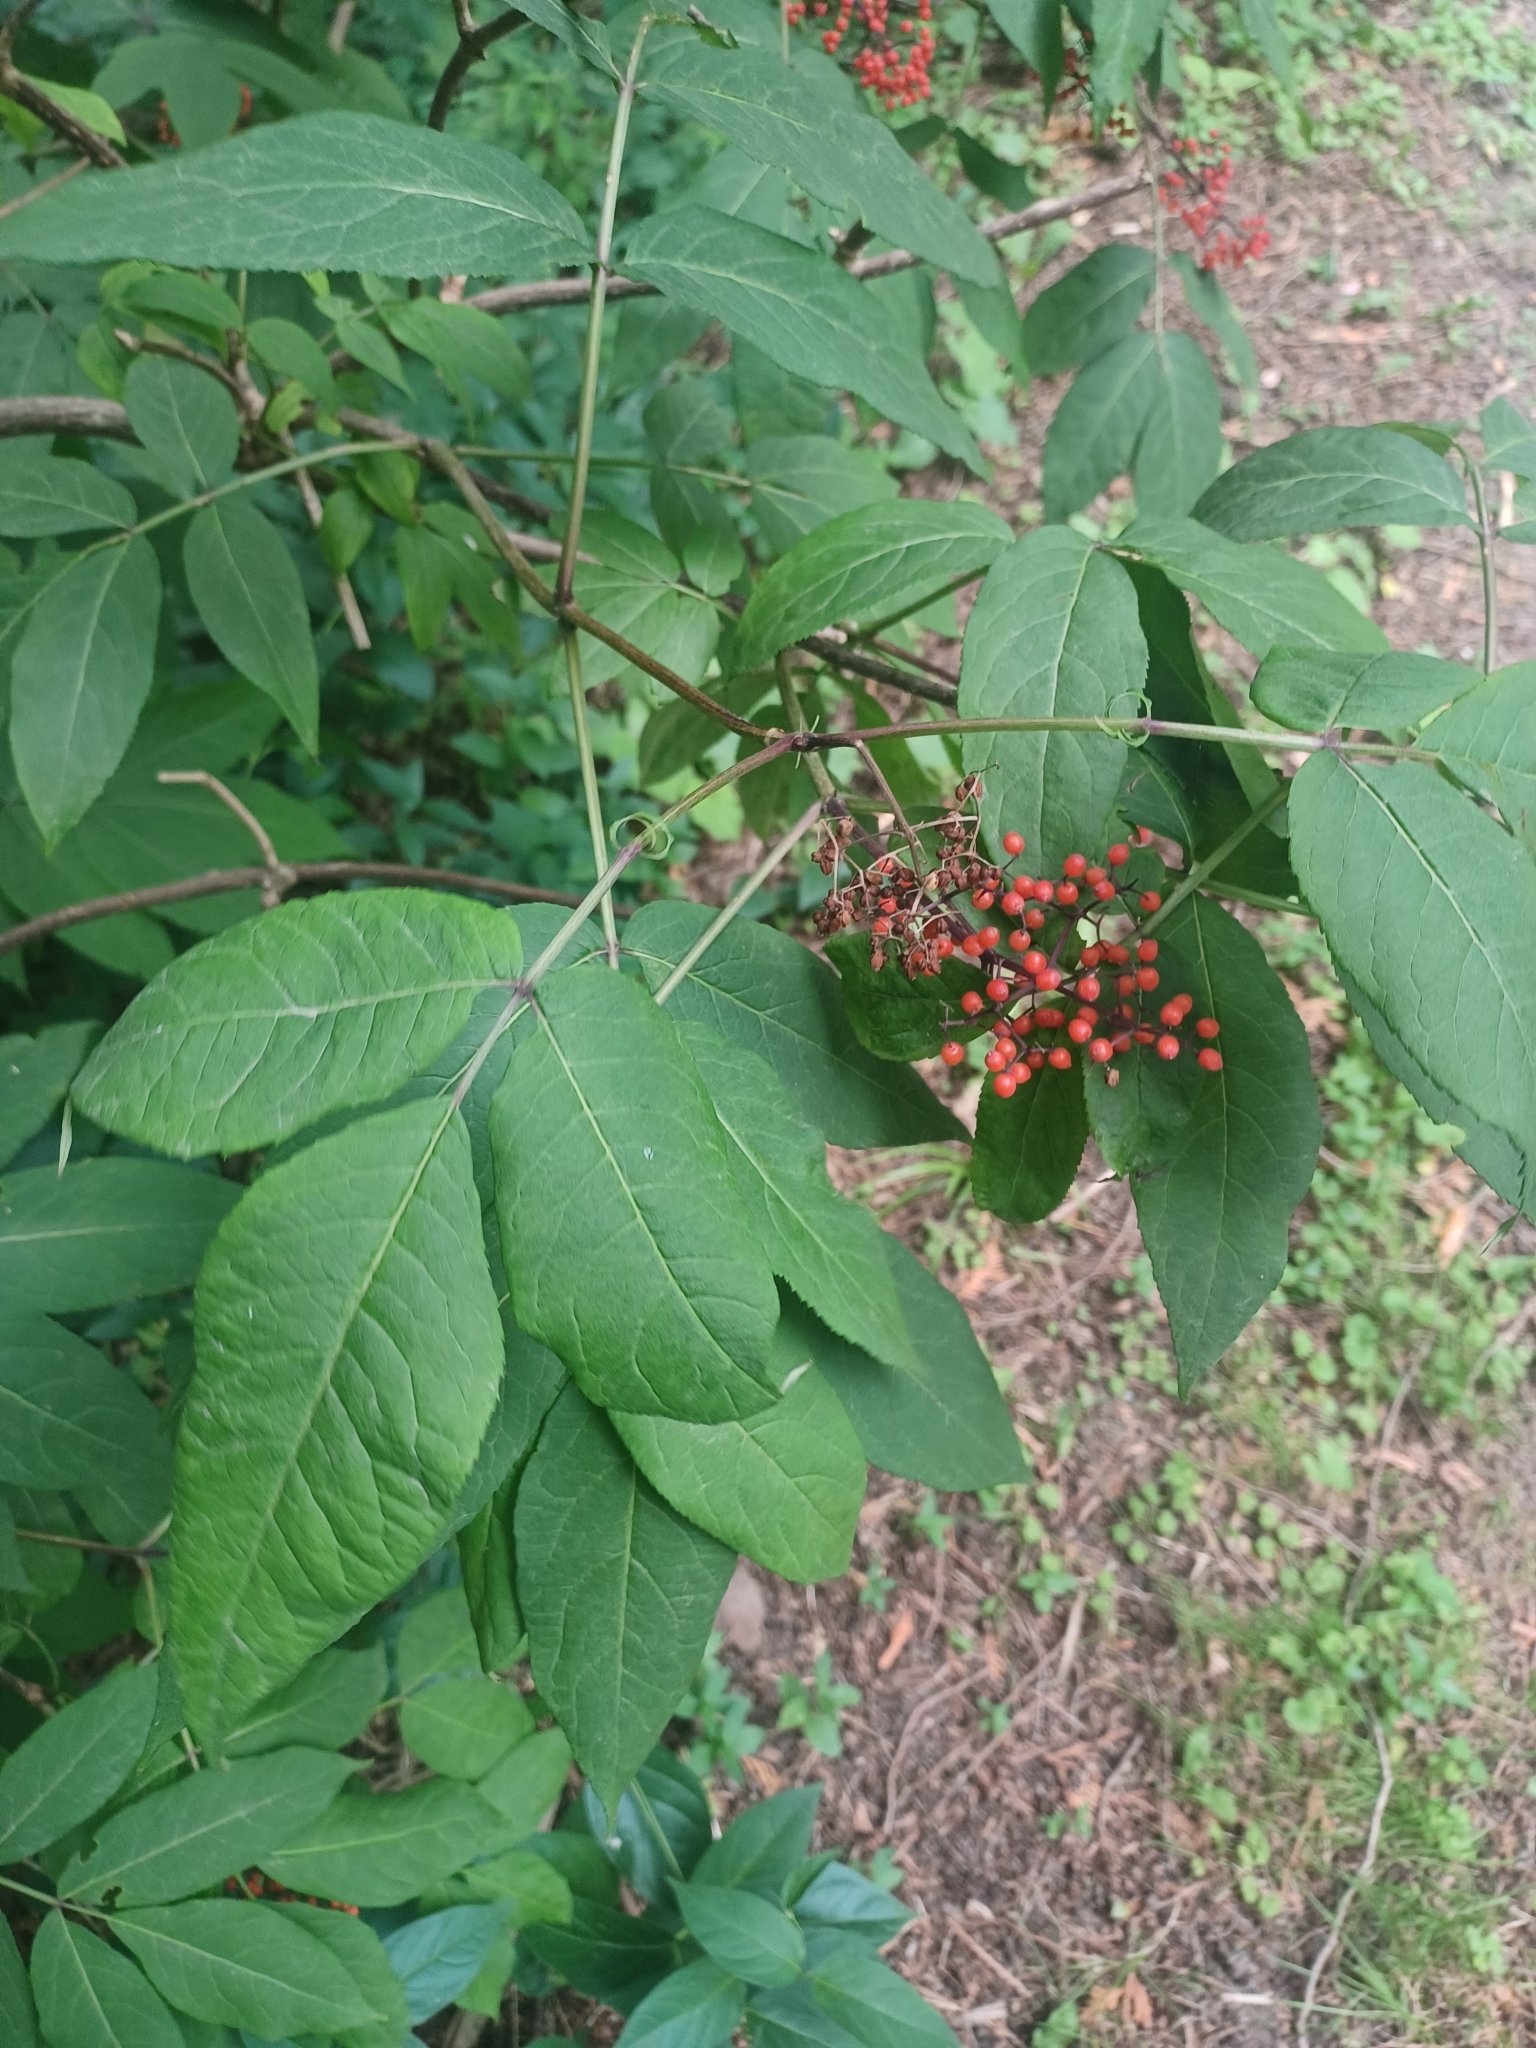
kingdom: Plantae
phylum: Tracheophyta
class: Magnoliopsida
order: Dipsacales
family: Viburnaceae
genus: Sambucus
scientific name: Sambucus racemosa
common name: Red-berried elder
